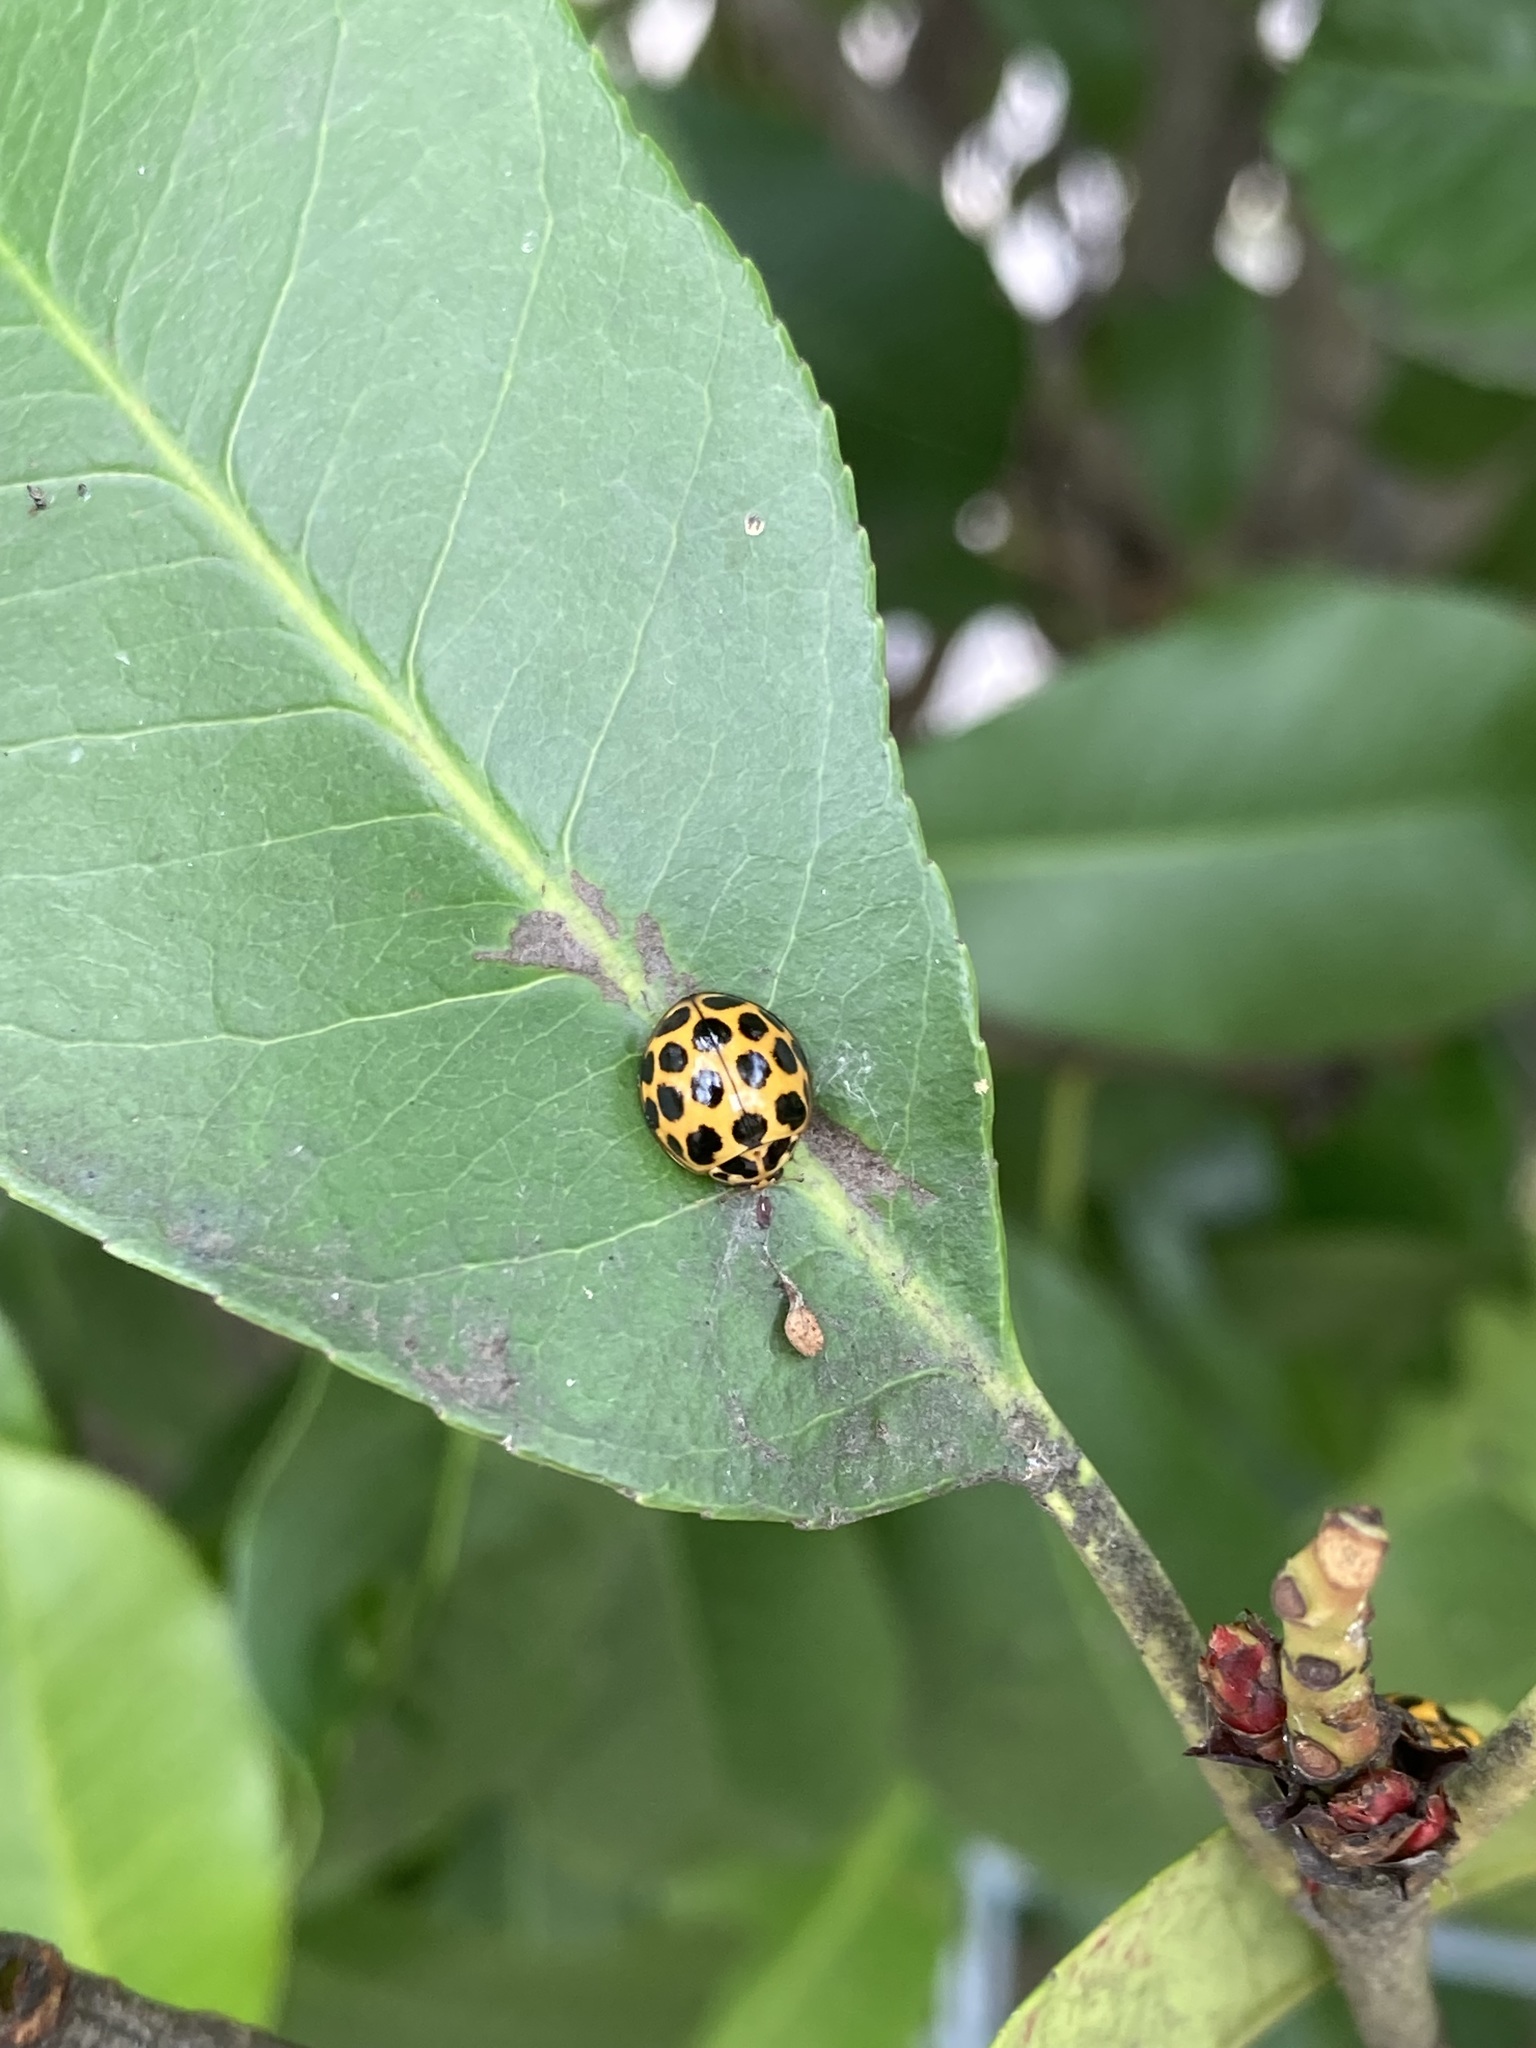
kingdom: Animalia
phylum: Arthropoda
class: Insecta
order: Coleoptera
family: Coccinellidae
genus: Harmonia
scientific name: Harmonia conformis
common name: Common spotted ladybird beetle
